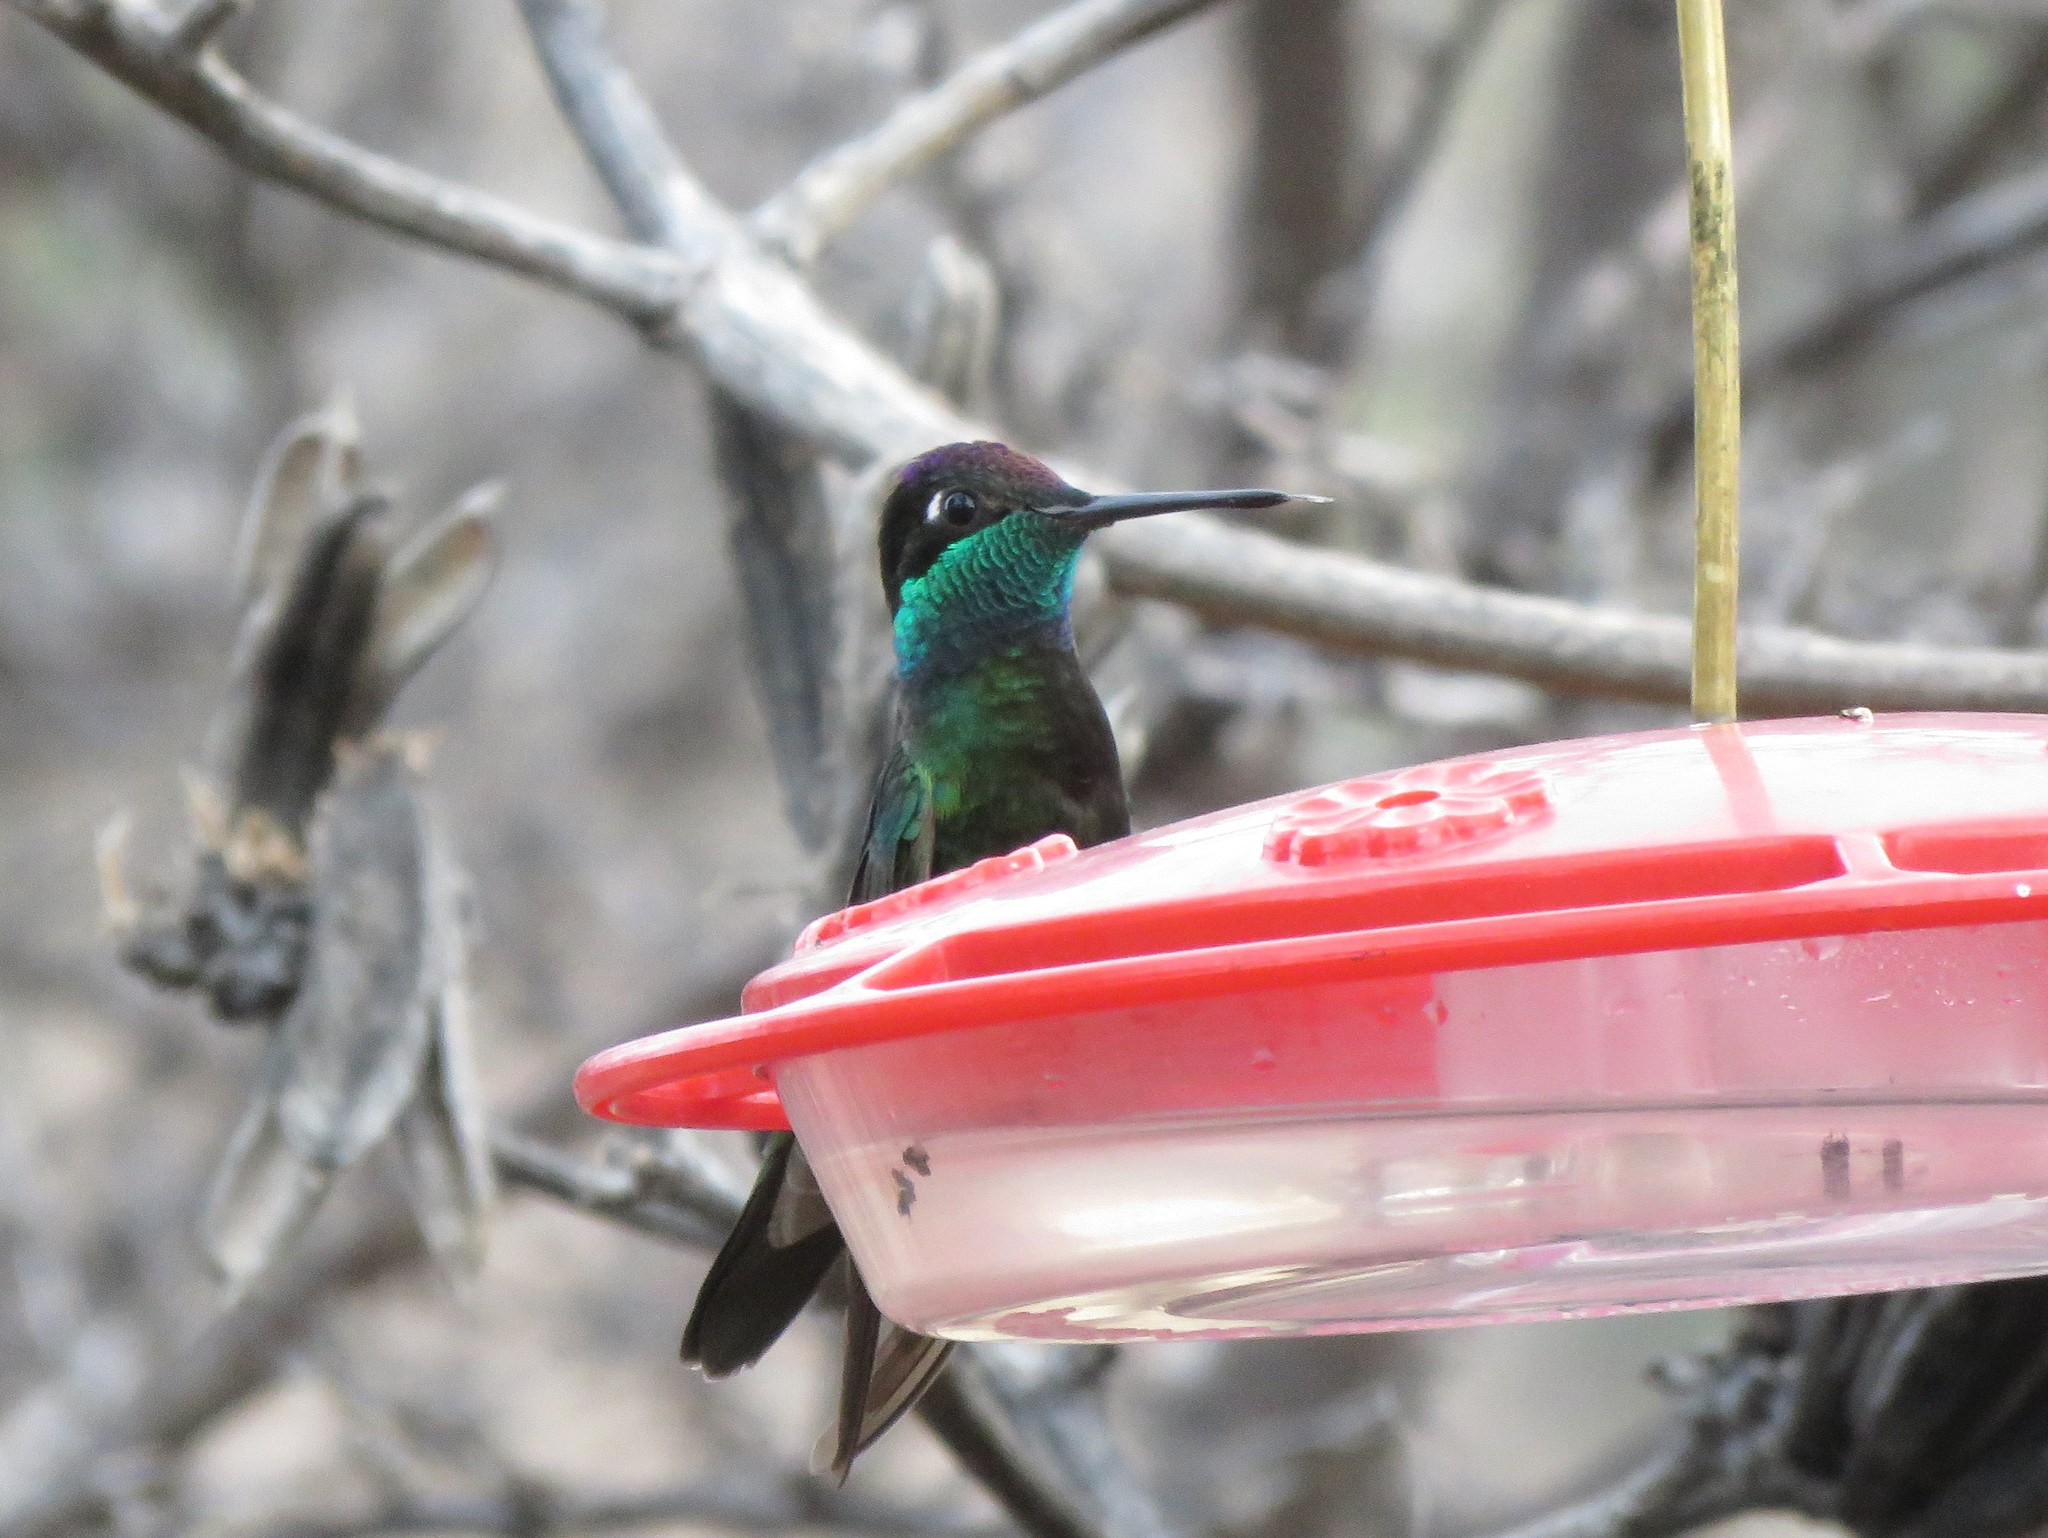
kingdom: Animalia
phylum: Chordata
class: Aves
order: Apodiformes
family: Trochilidae
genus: Eugenes
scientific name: Eugenes fulgens
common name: Magnificent hummingbird
